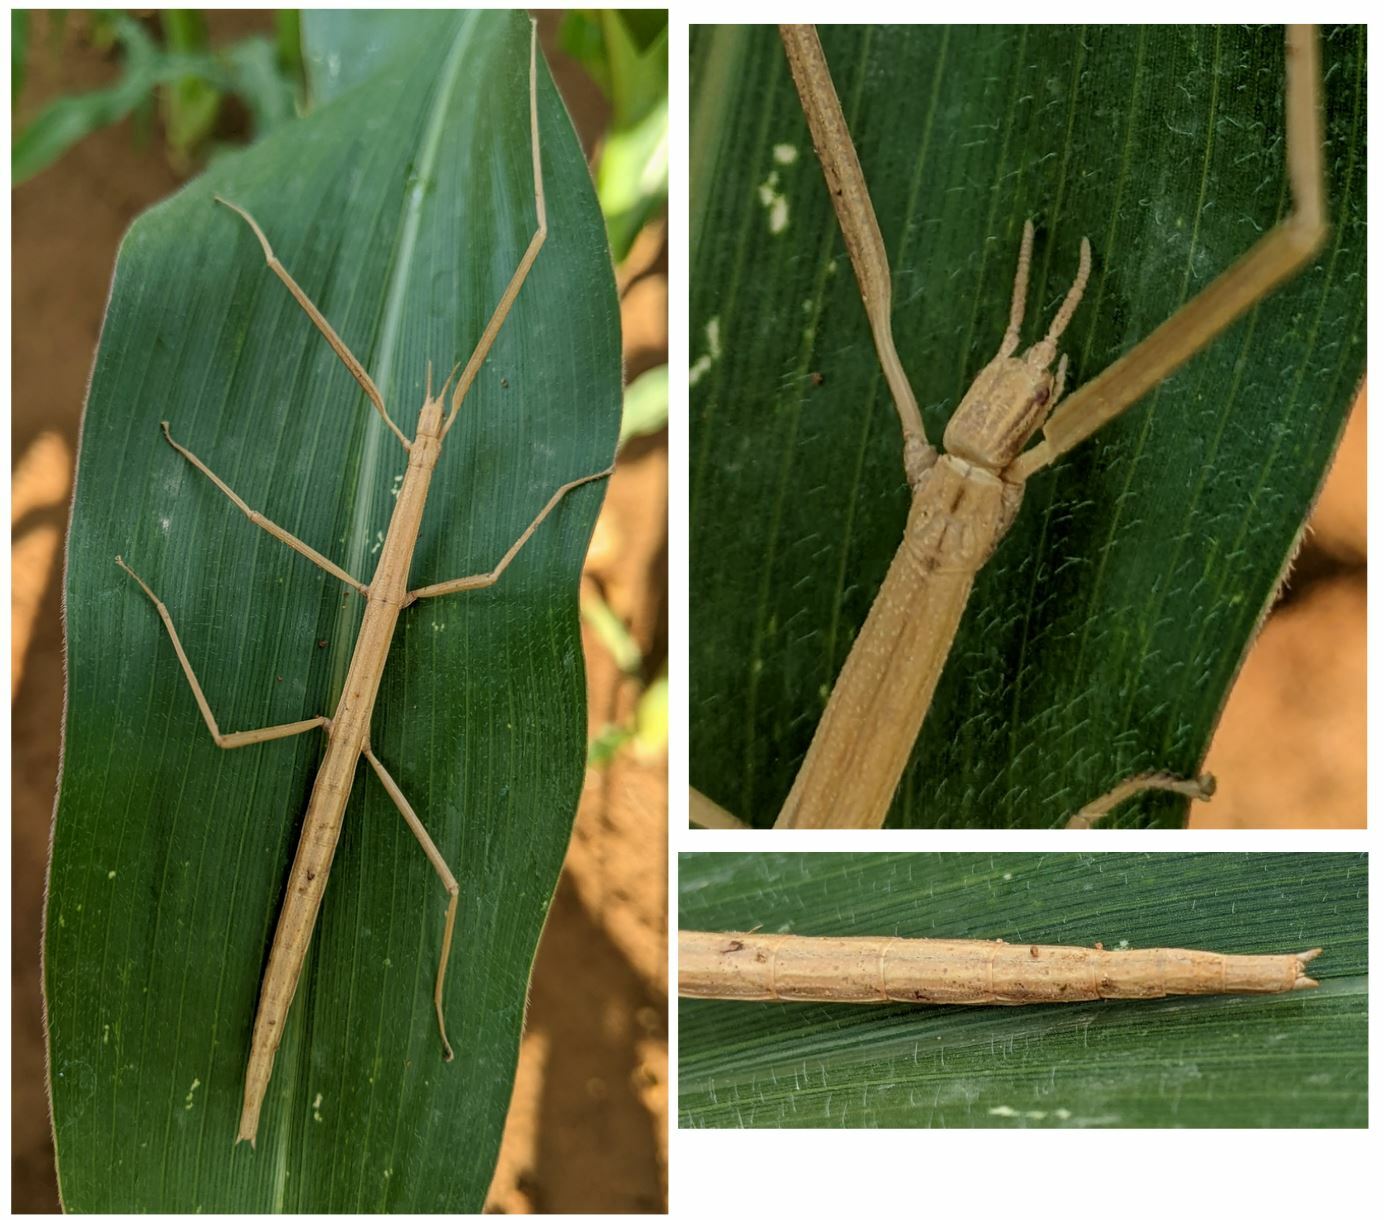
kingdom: Animalia
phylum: Arthropoda
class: Insecta
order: Phasmida
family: Bacillidae
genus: Clonopsis
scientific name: Clonopsis gallica
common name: French stick insect
